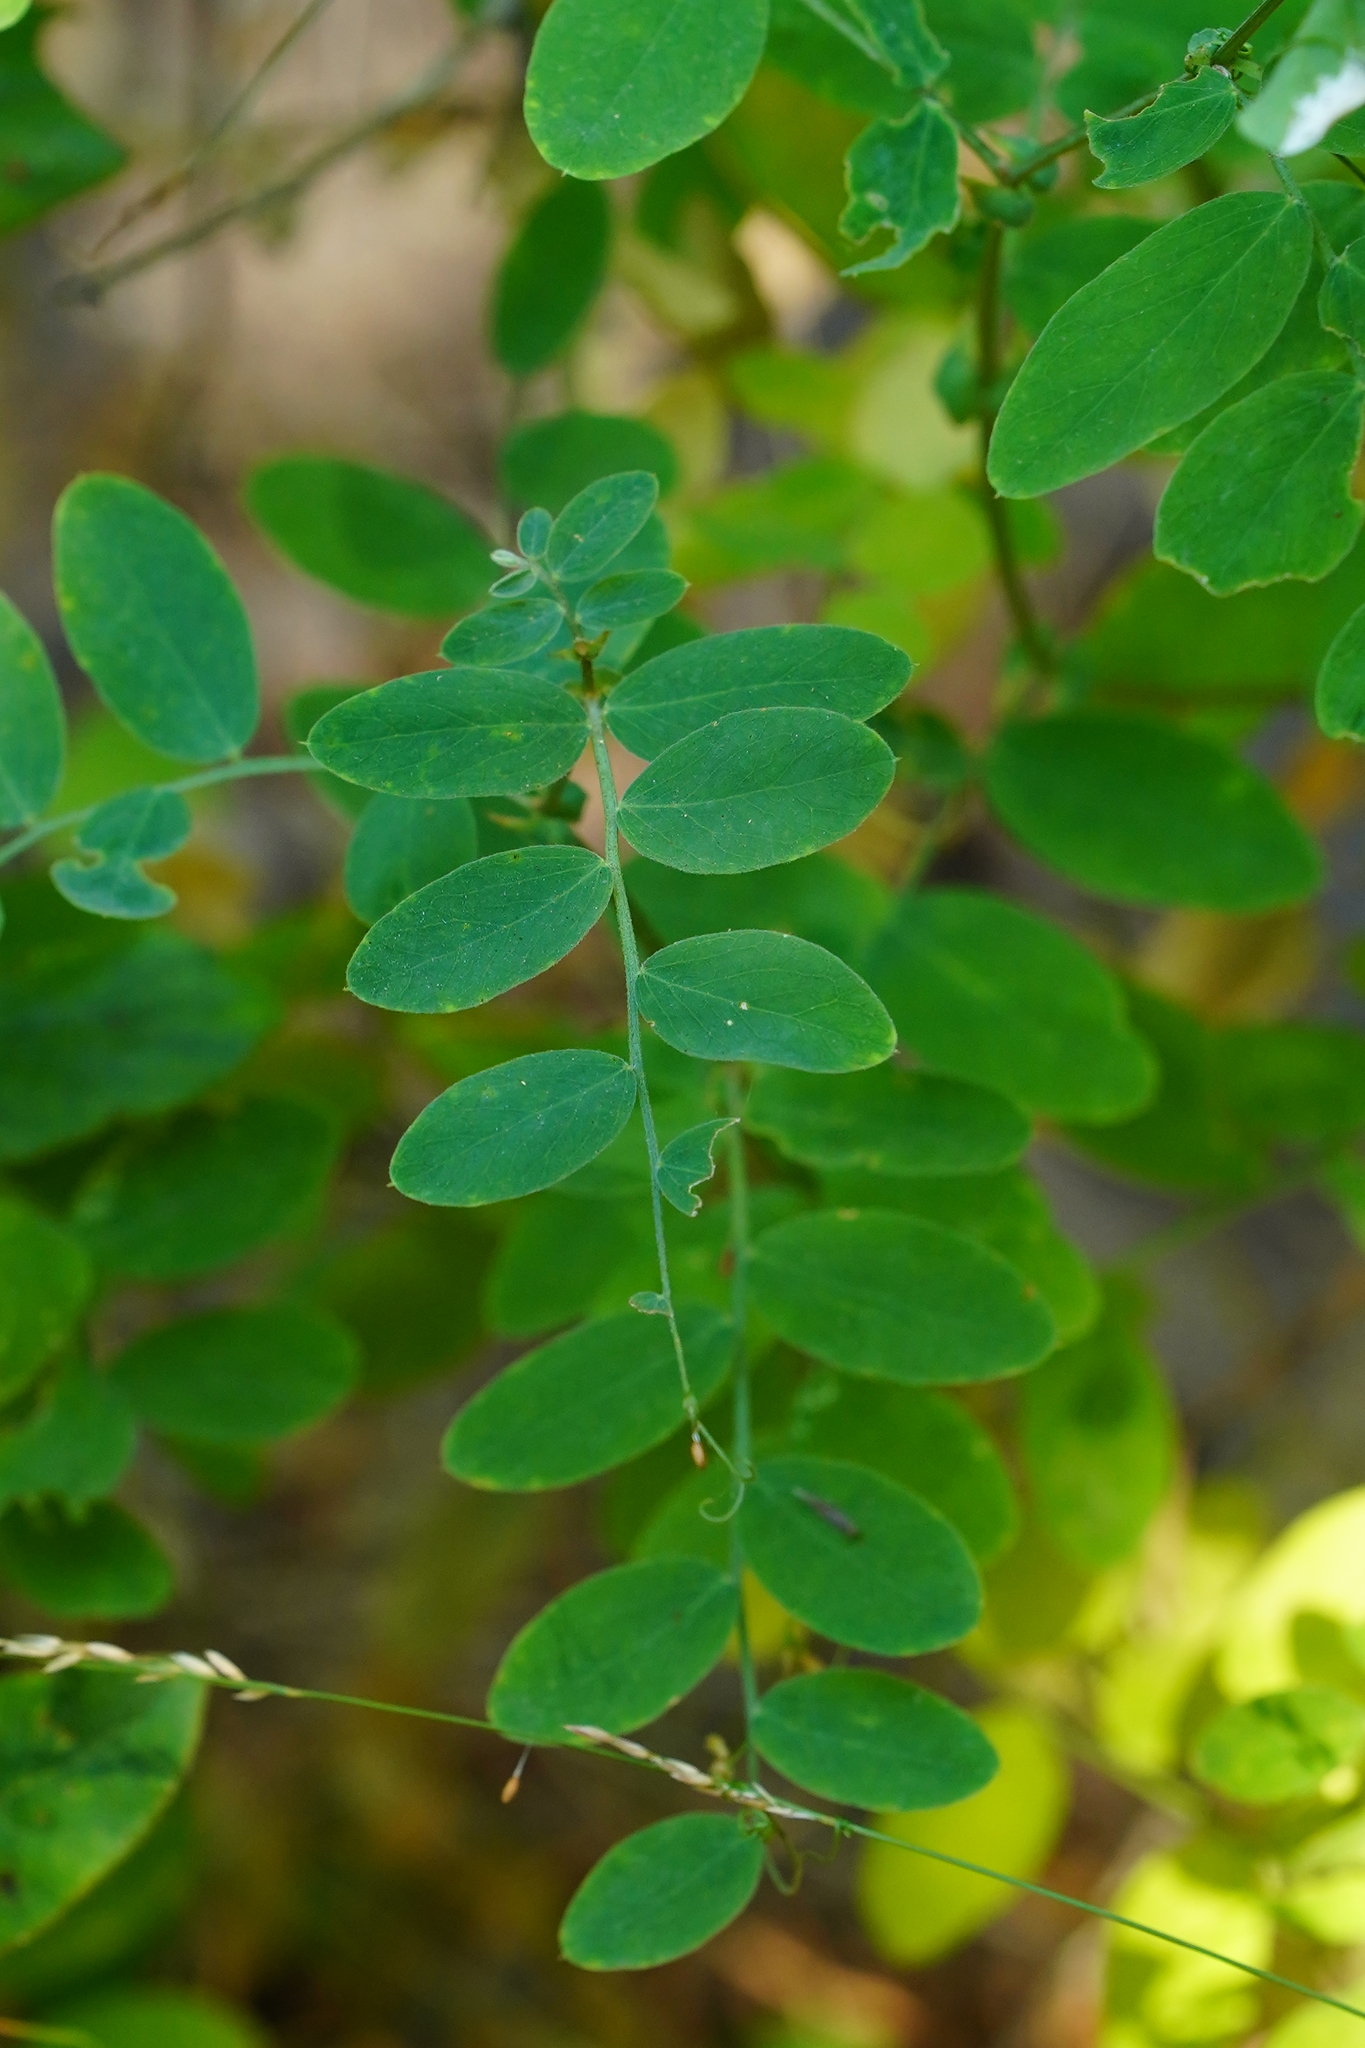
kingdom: Plantae
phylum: Tracheophyta
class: Magnoliopsida
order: Fabales
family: Fabaceae
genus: Lathyrus
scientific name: Lathyrus vestitus
